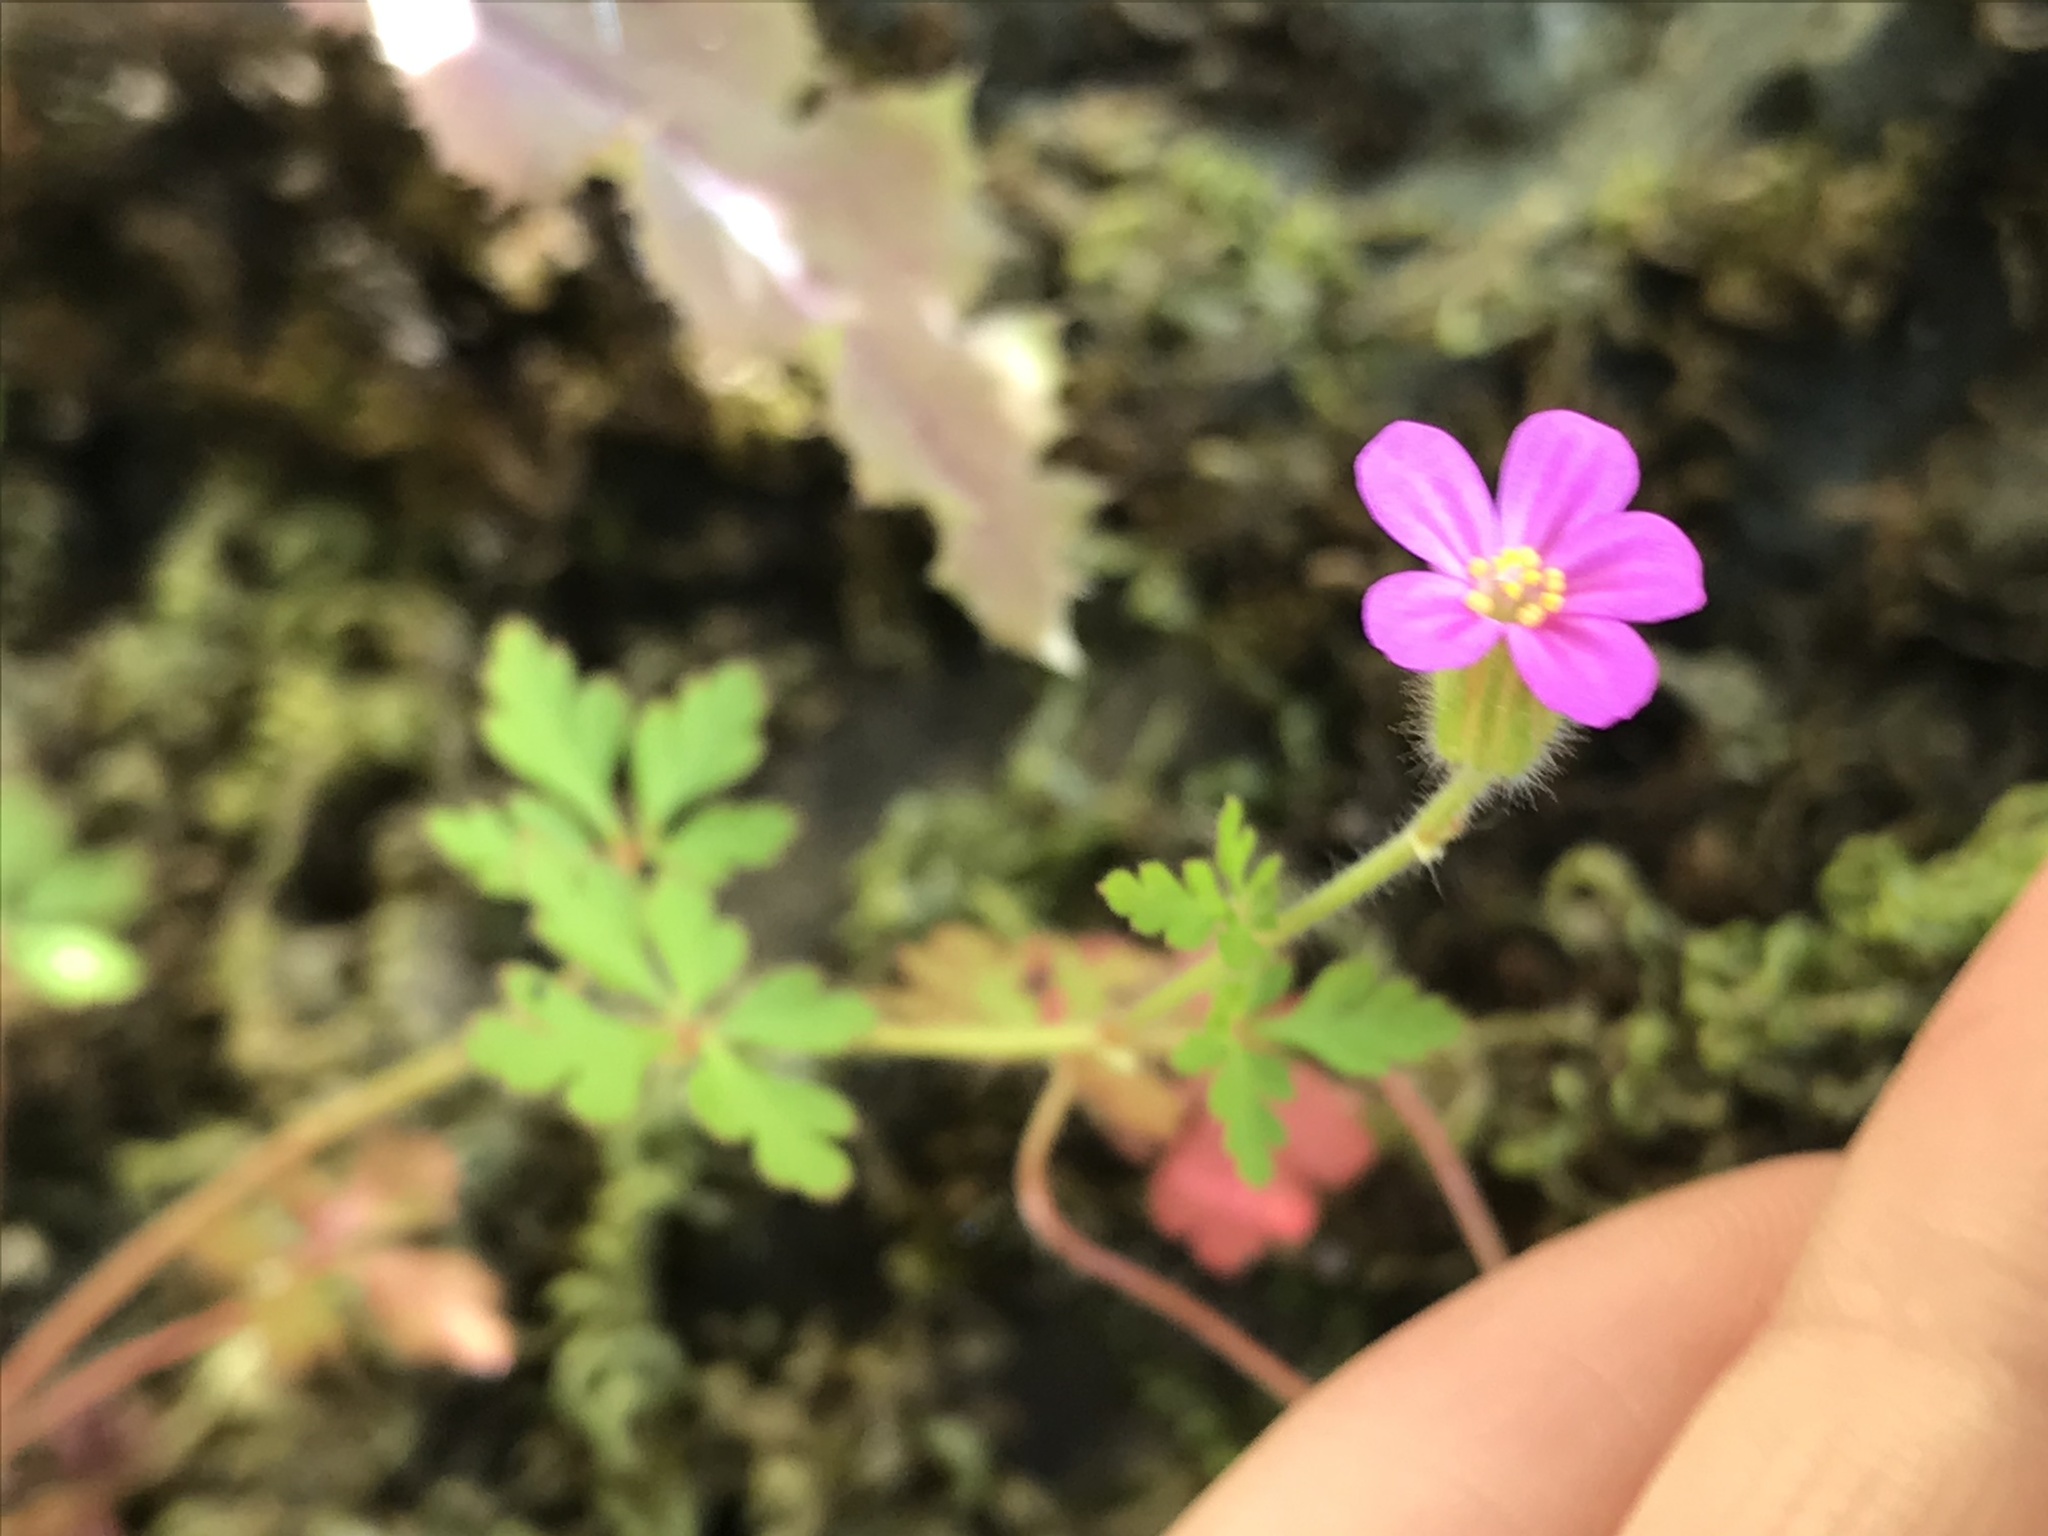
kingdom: Plantae
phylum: Tracheophyta
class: Magnoliopsida
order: Geraniales
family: Geraniaceae
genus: Geranium
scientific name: Geranium purpureum
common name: Little-robin
